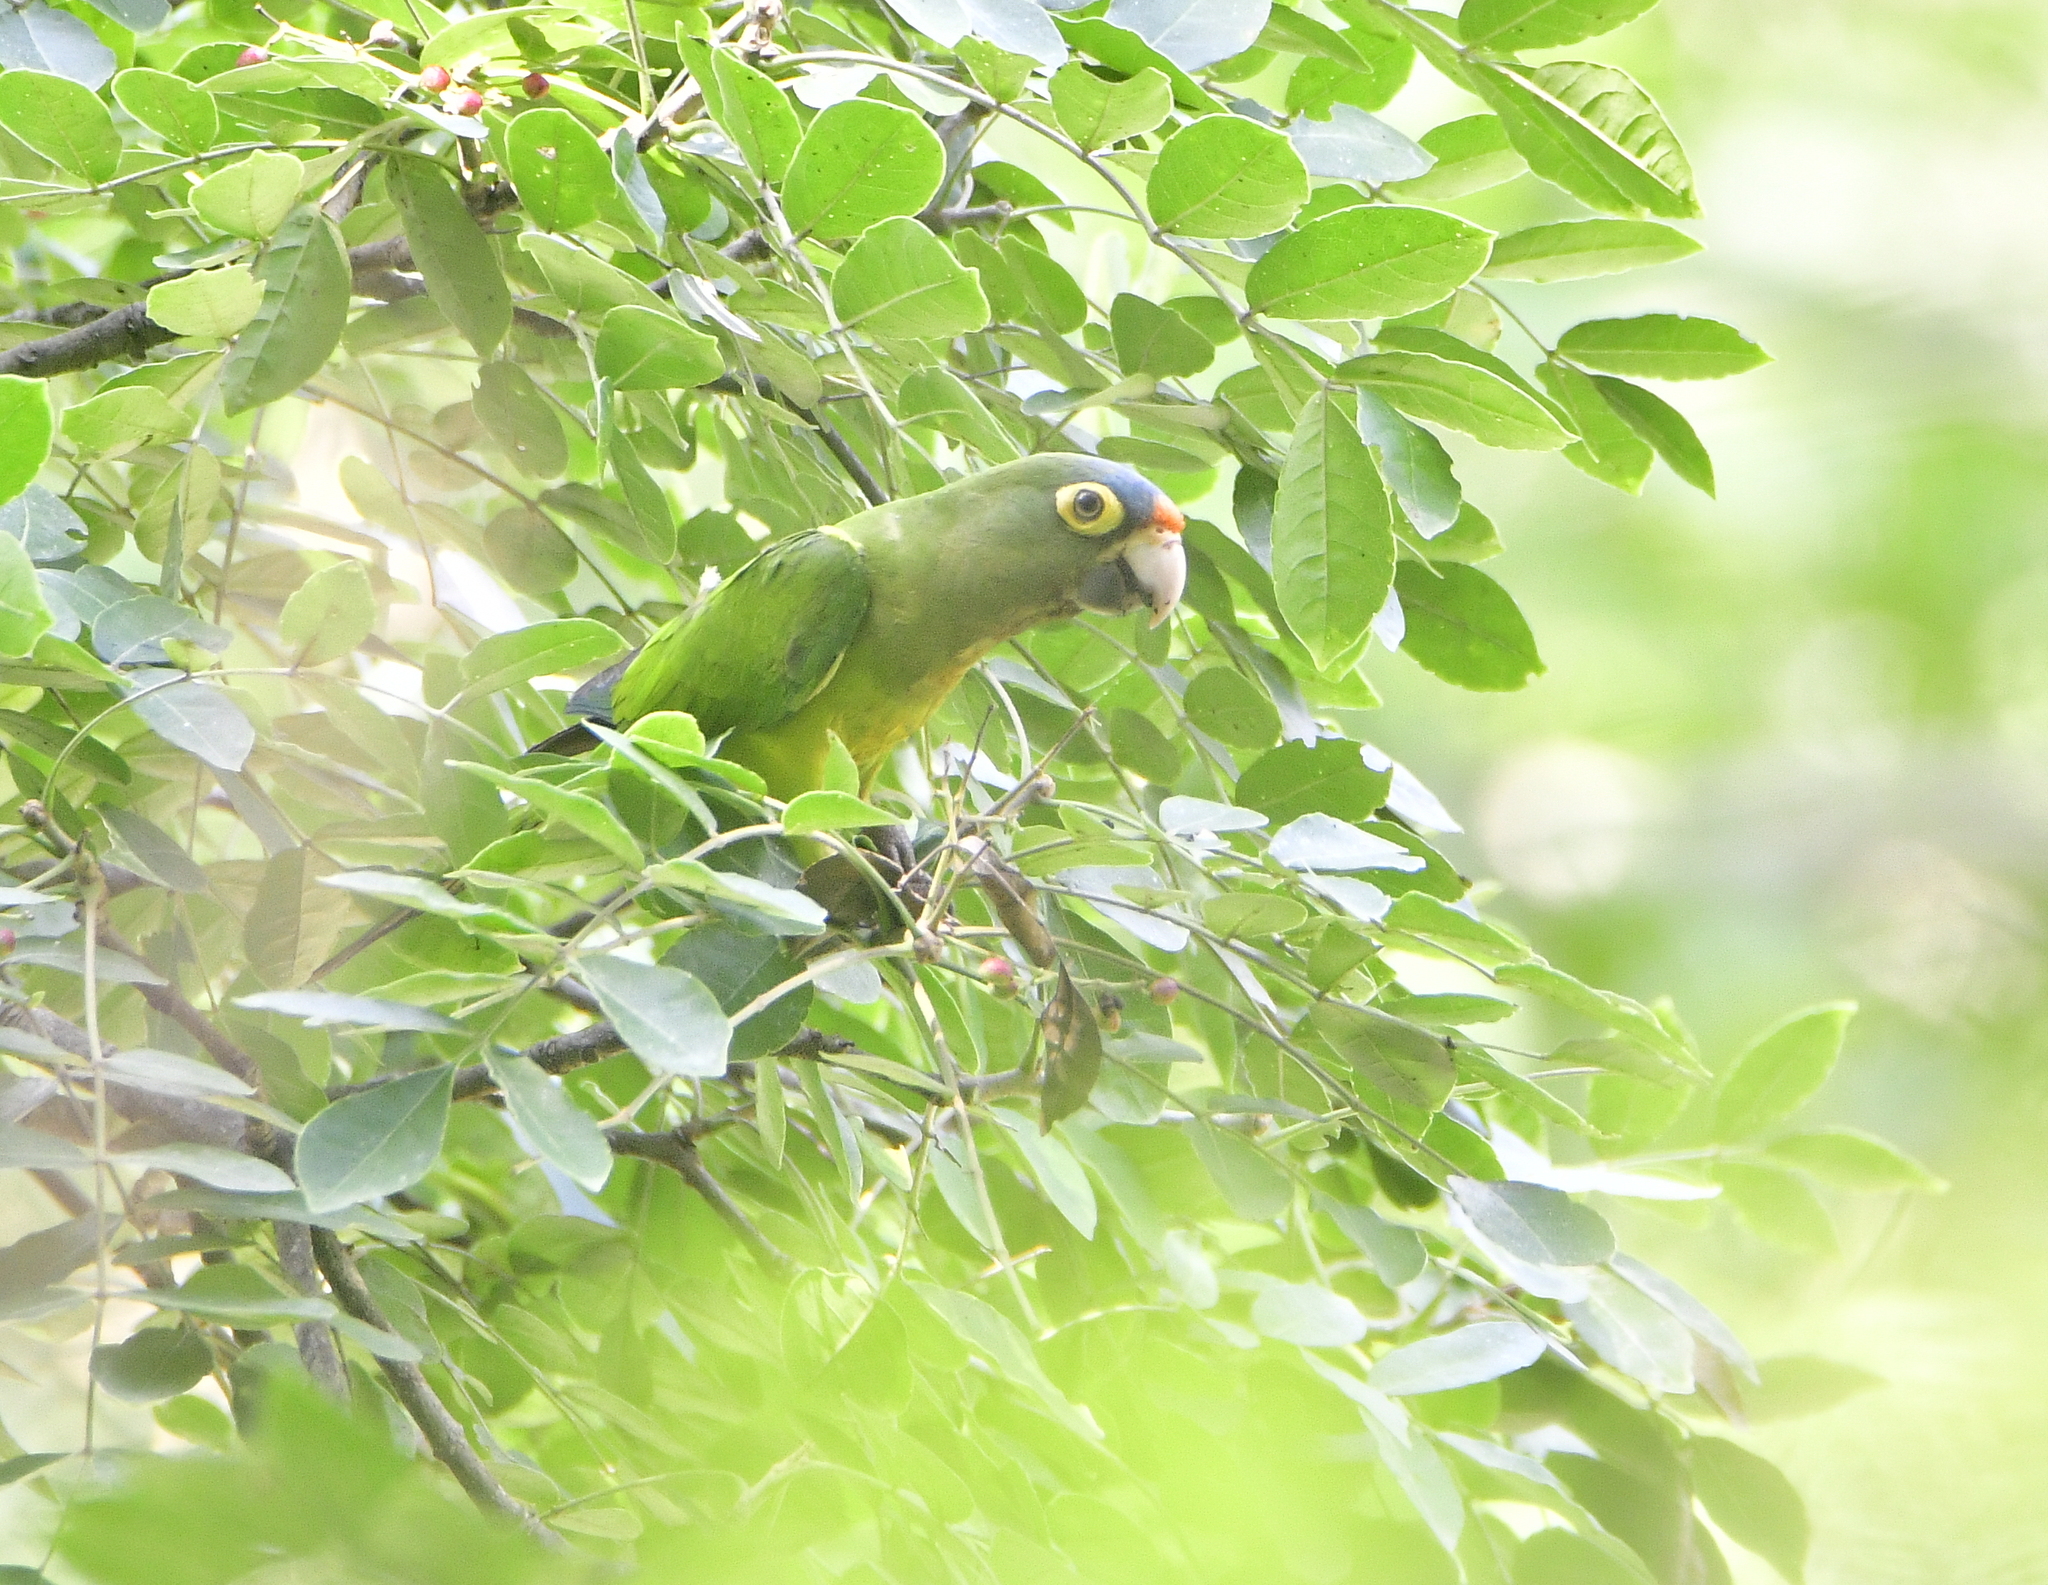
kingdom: Animalia
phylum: Chordata
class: Aves
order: Psittaciformes
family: Psittacidae
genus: Aratinga
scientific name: Aratinga canicularis
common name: Orange-fronted parakeet
